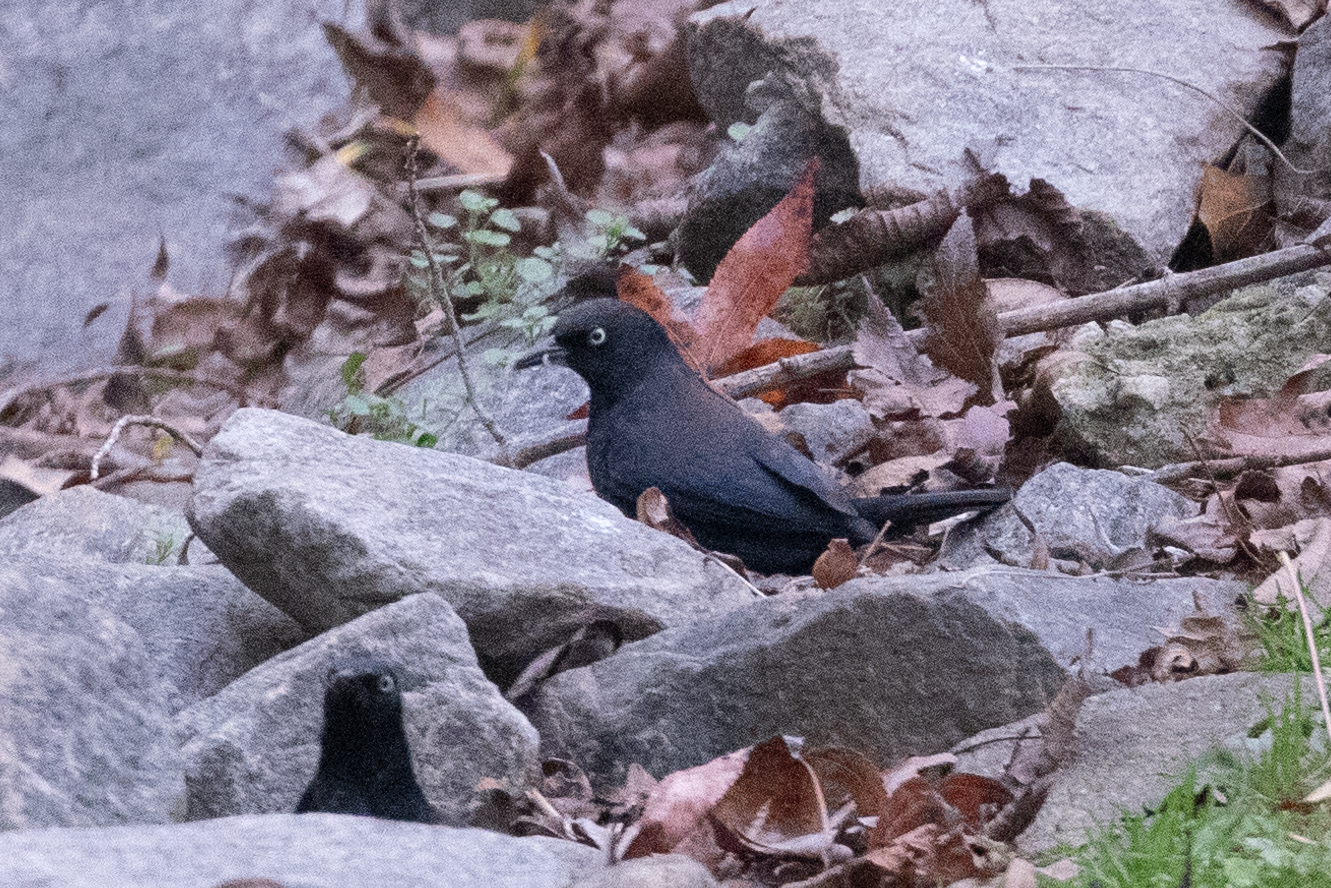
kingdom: Animalia
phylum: Chordata
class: Aves
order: Passeriformes
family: Icteridae
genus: Euphagus
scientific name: Euphagus carolinus
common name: Rusty blackbird
